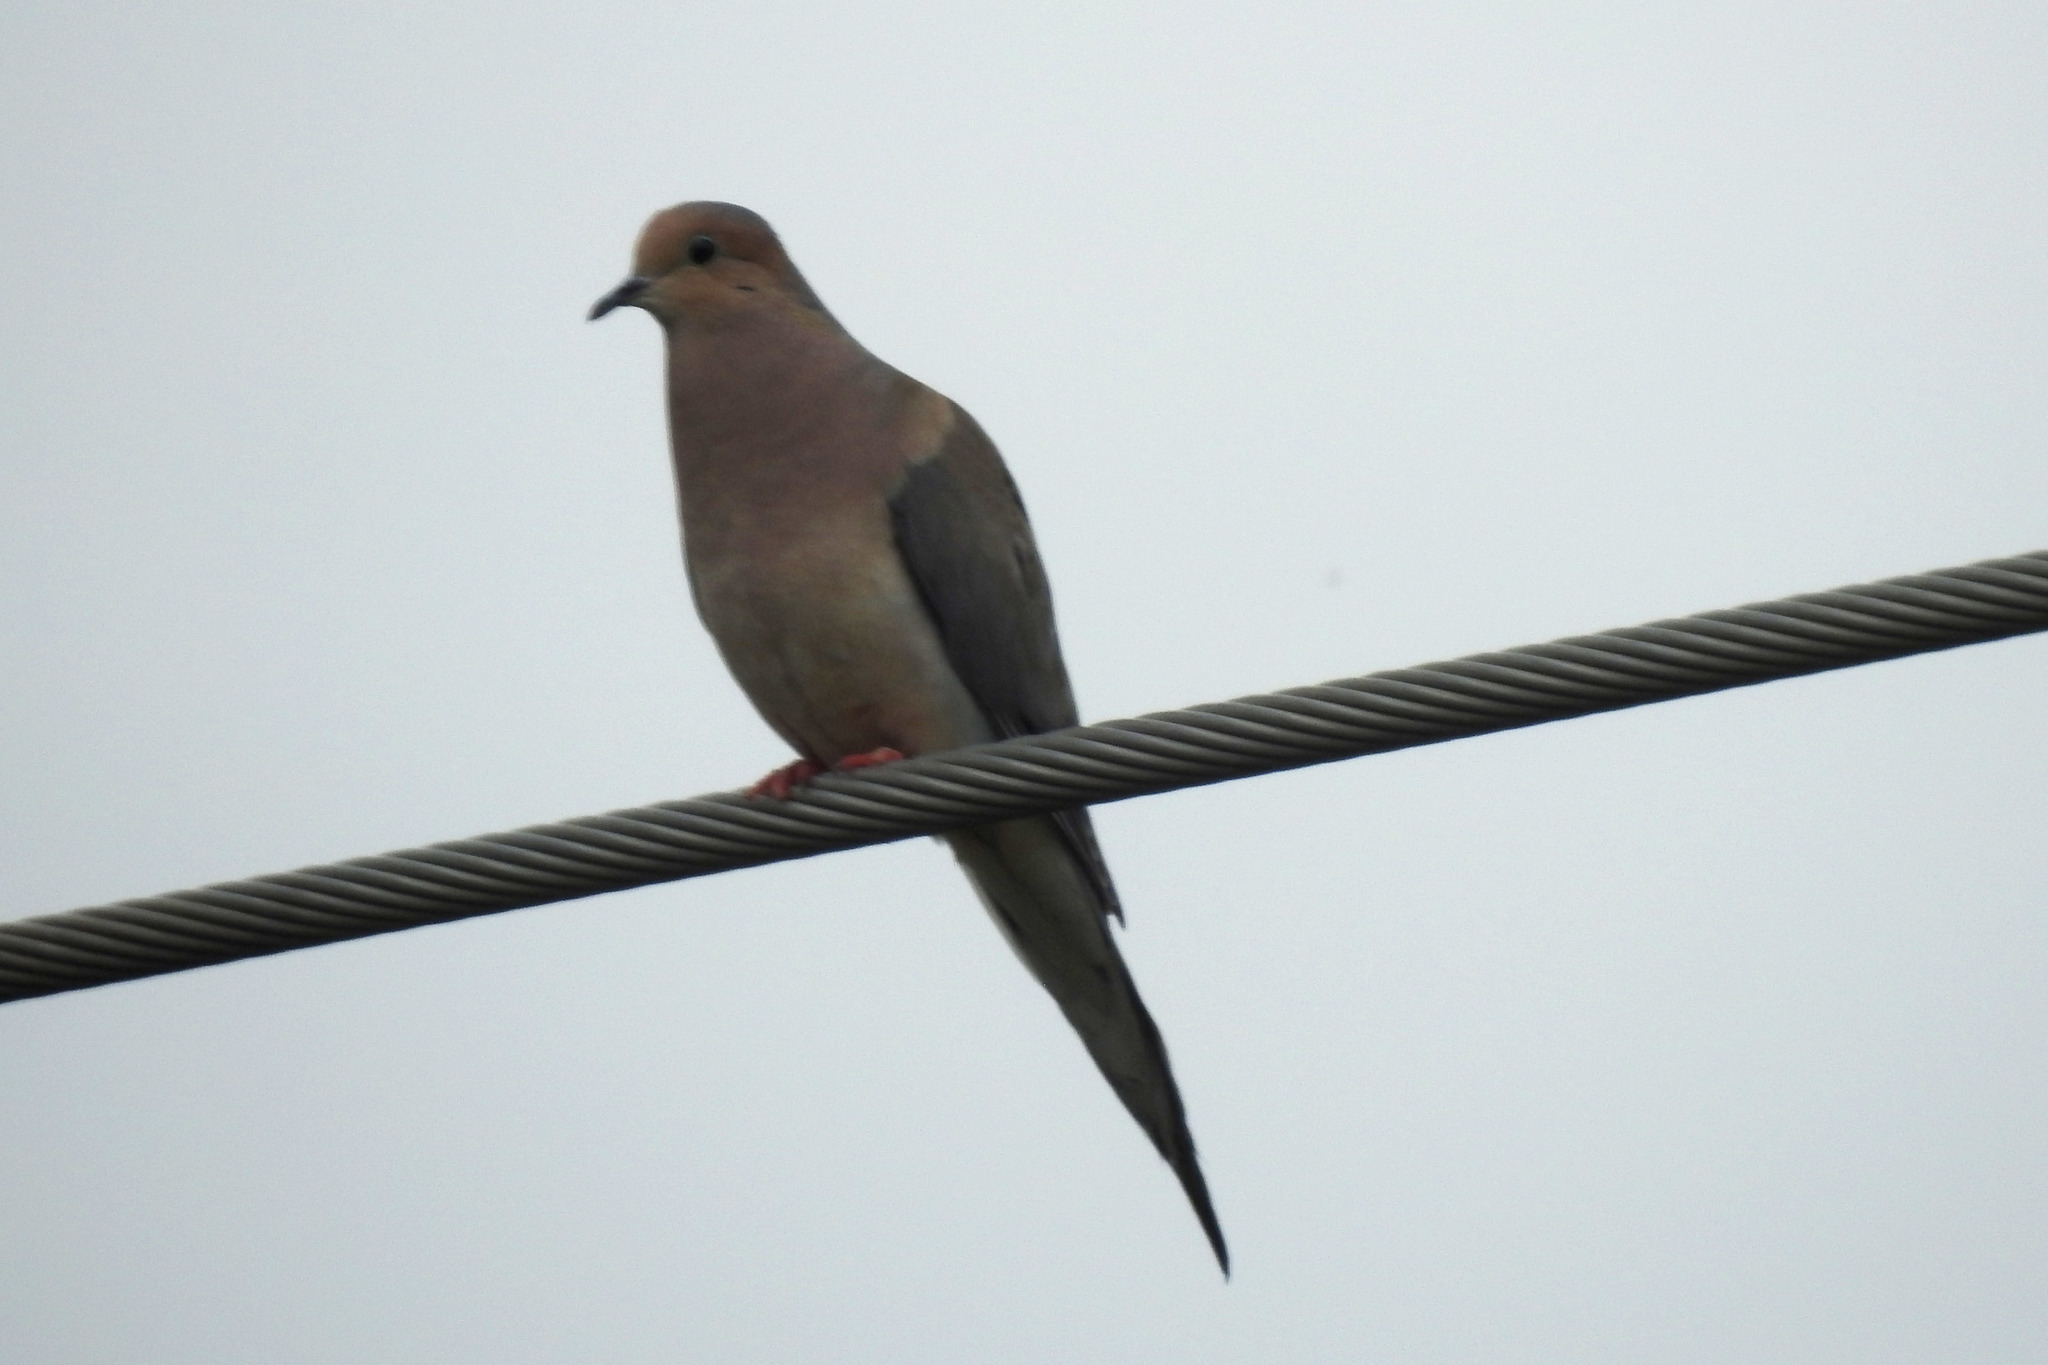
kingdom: Animalia
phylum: Chordata
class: Aves
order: Columbiformes
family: Columbidae
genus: Zenaida
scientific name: Zenaida macroura
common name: Mourning dove
